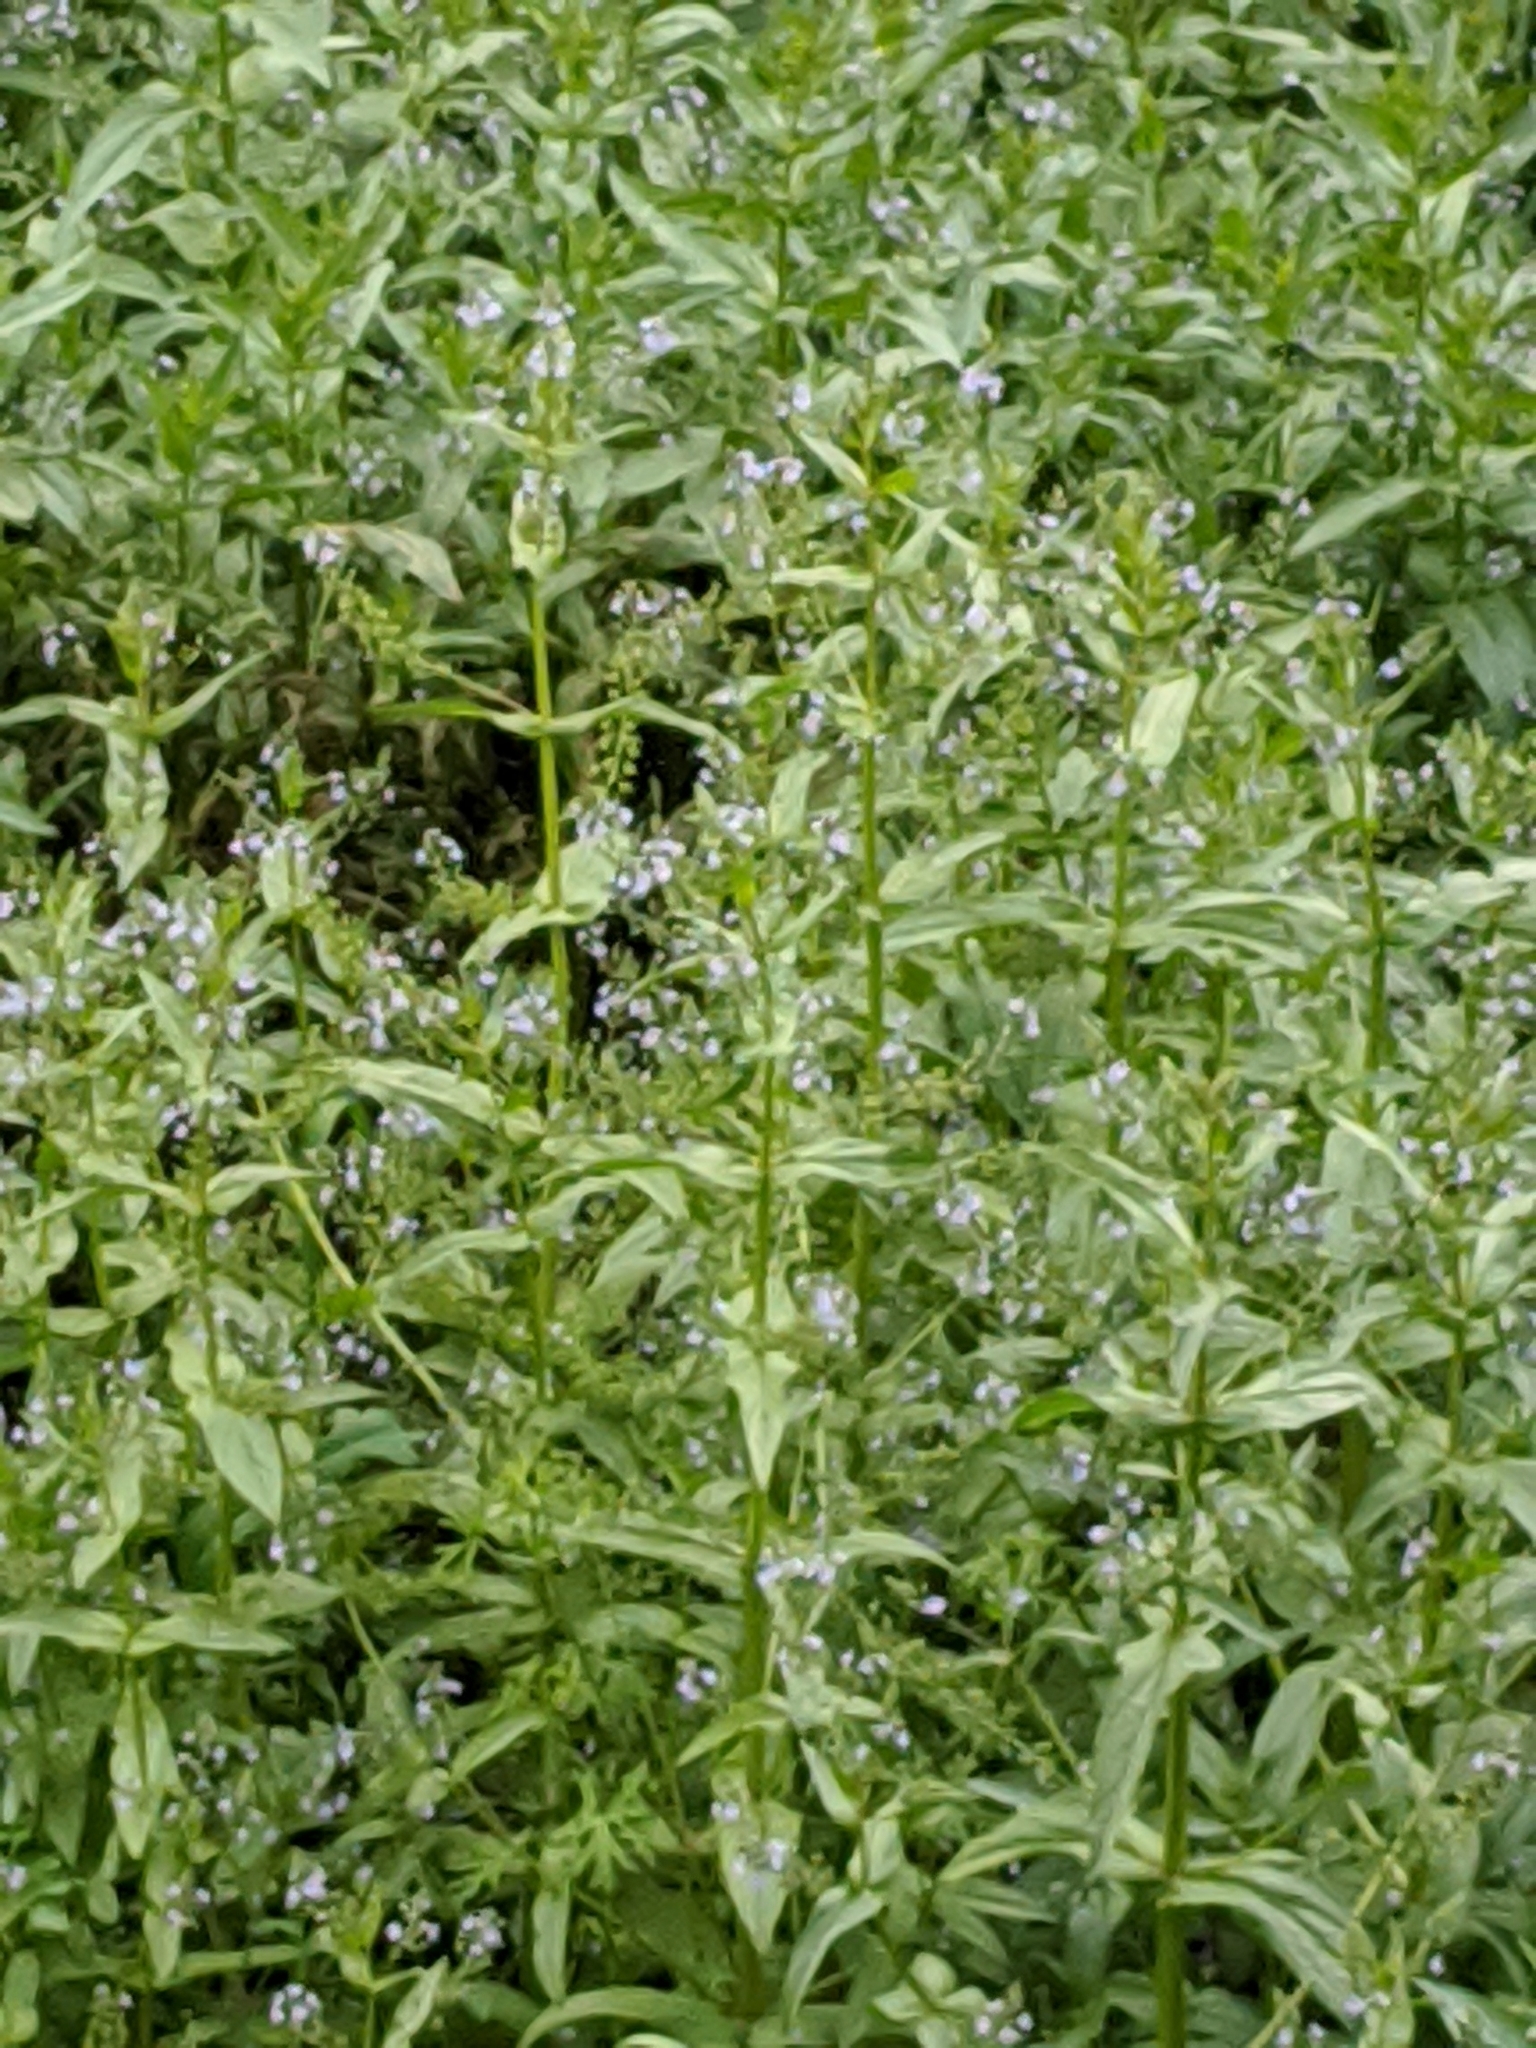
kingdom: Plantae
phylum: Tracheophyta
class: Magnoliopsida
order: Lamiales
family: Plantaginaceae
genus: Veronica
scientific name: Veronica anagallis-aquatica
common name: Water speedwell
